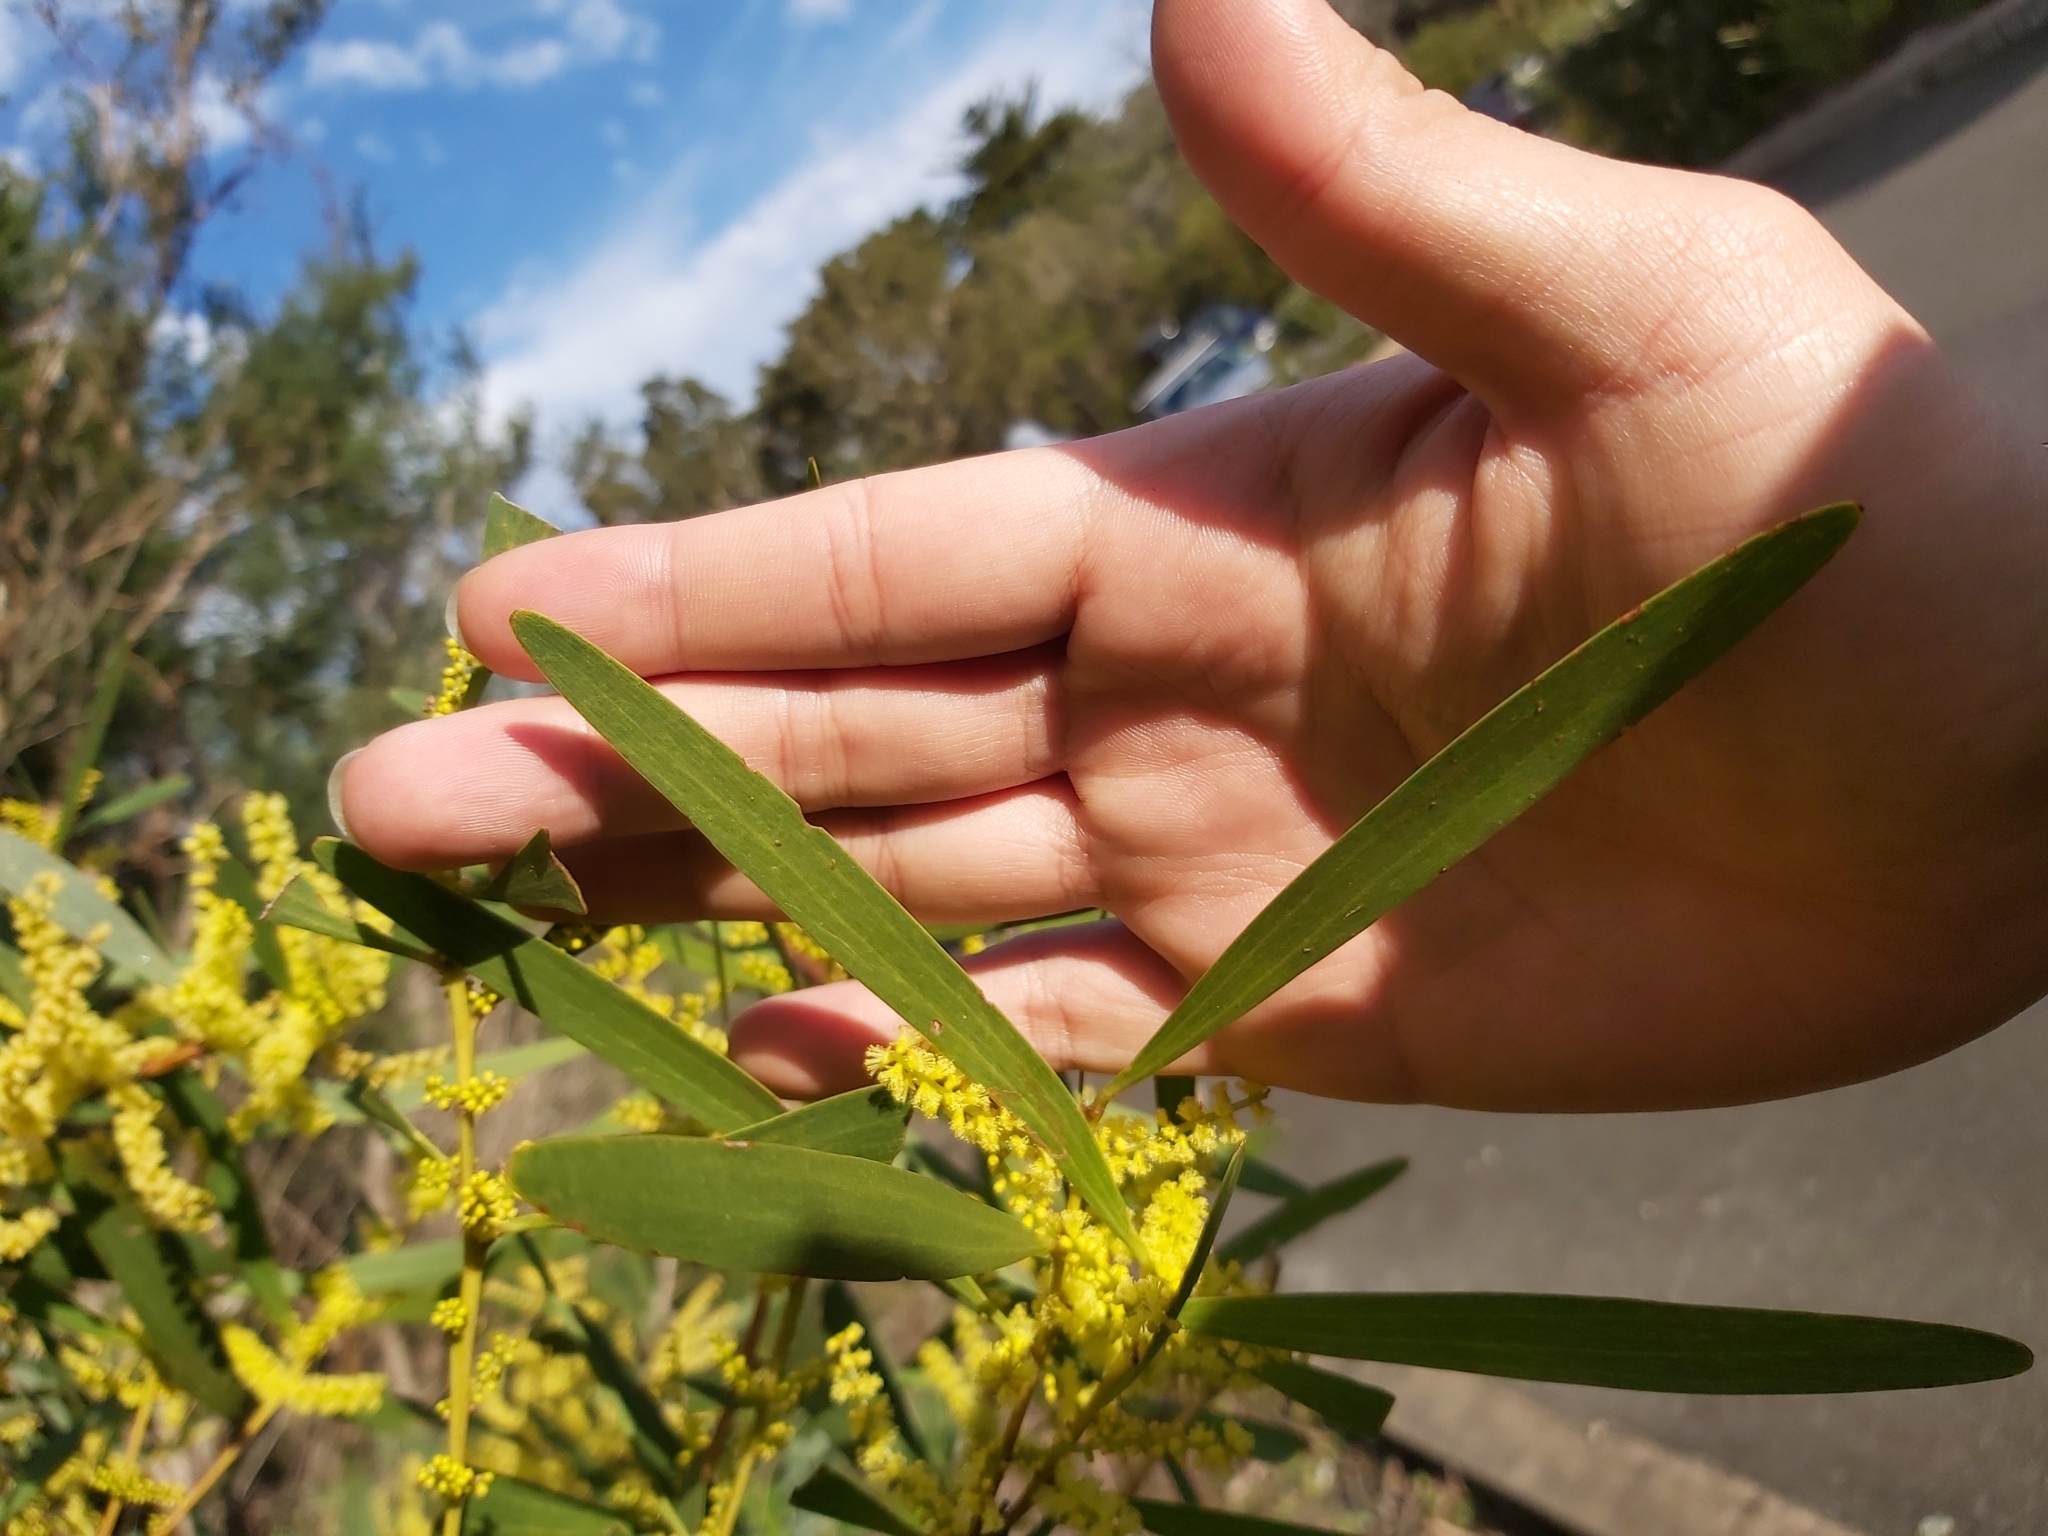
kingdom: Plantae
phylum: Tracheophyta
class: Magnoliopsida
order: Fabales
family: Fabaceae
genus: Acacia
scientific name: Acacia longifolia
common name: Sydney golden wattle
